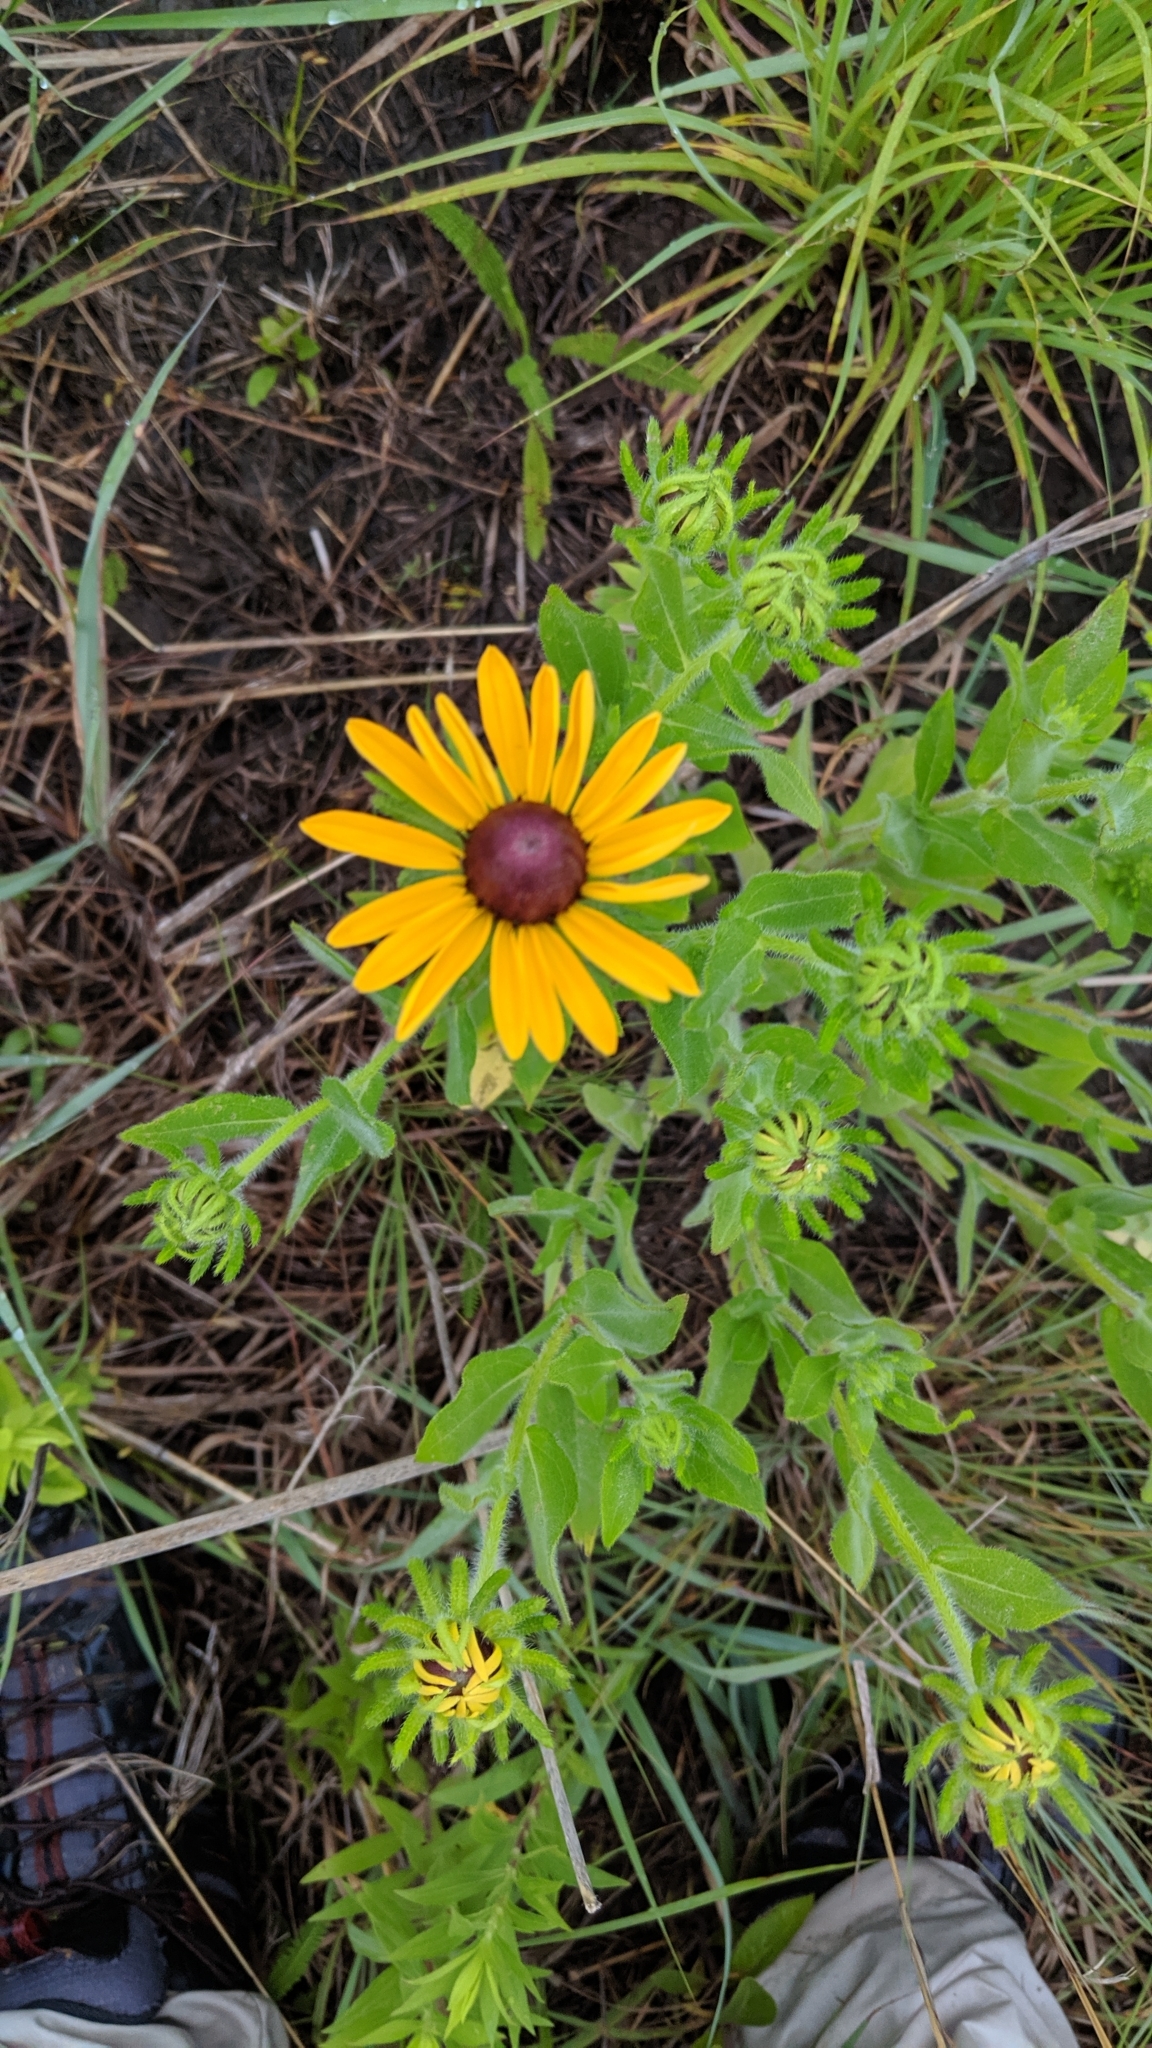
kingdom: Plantae
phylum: Tracheophyta
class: Magnoliopsida
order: Asterales
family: Asteraceae
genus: Rudbeckia
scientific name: Rudbeckia hirta
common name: Black-eyed-susan
